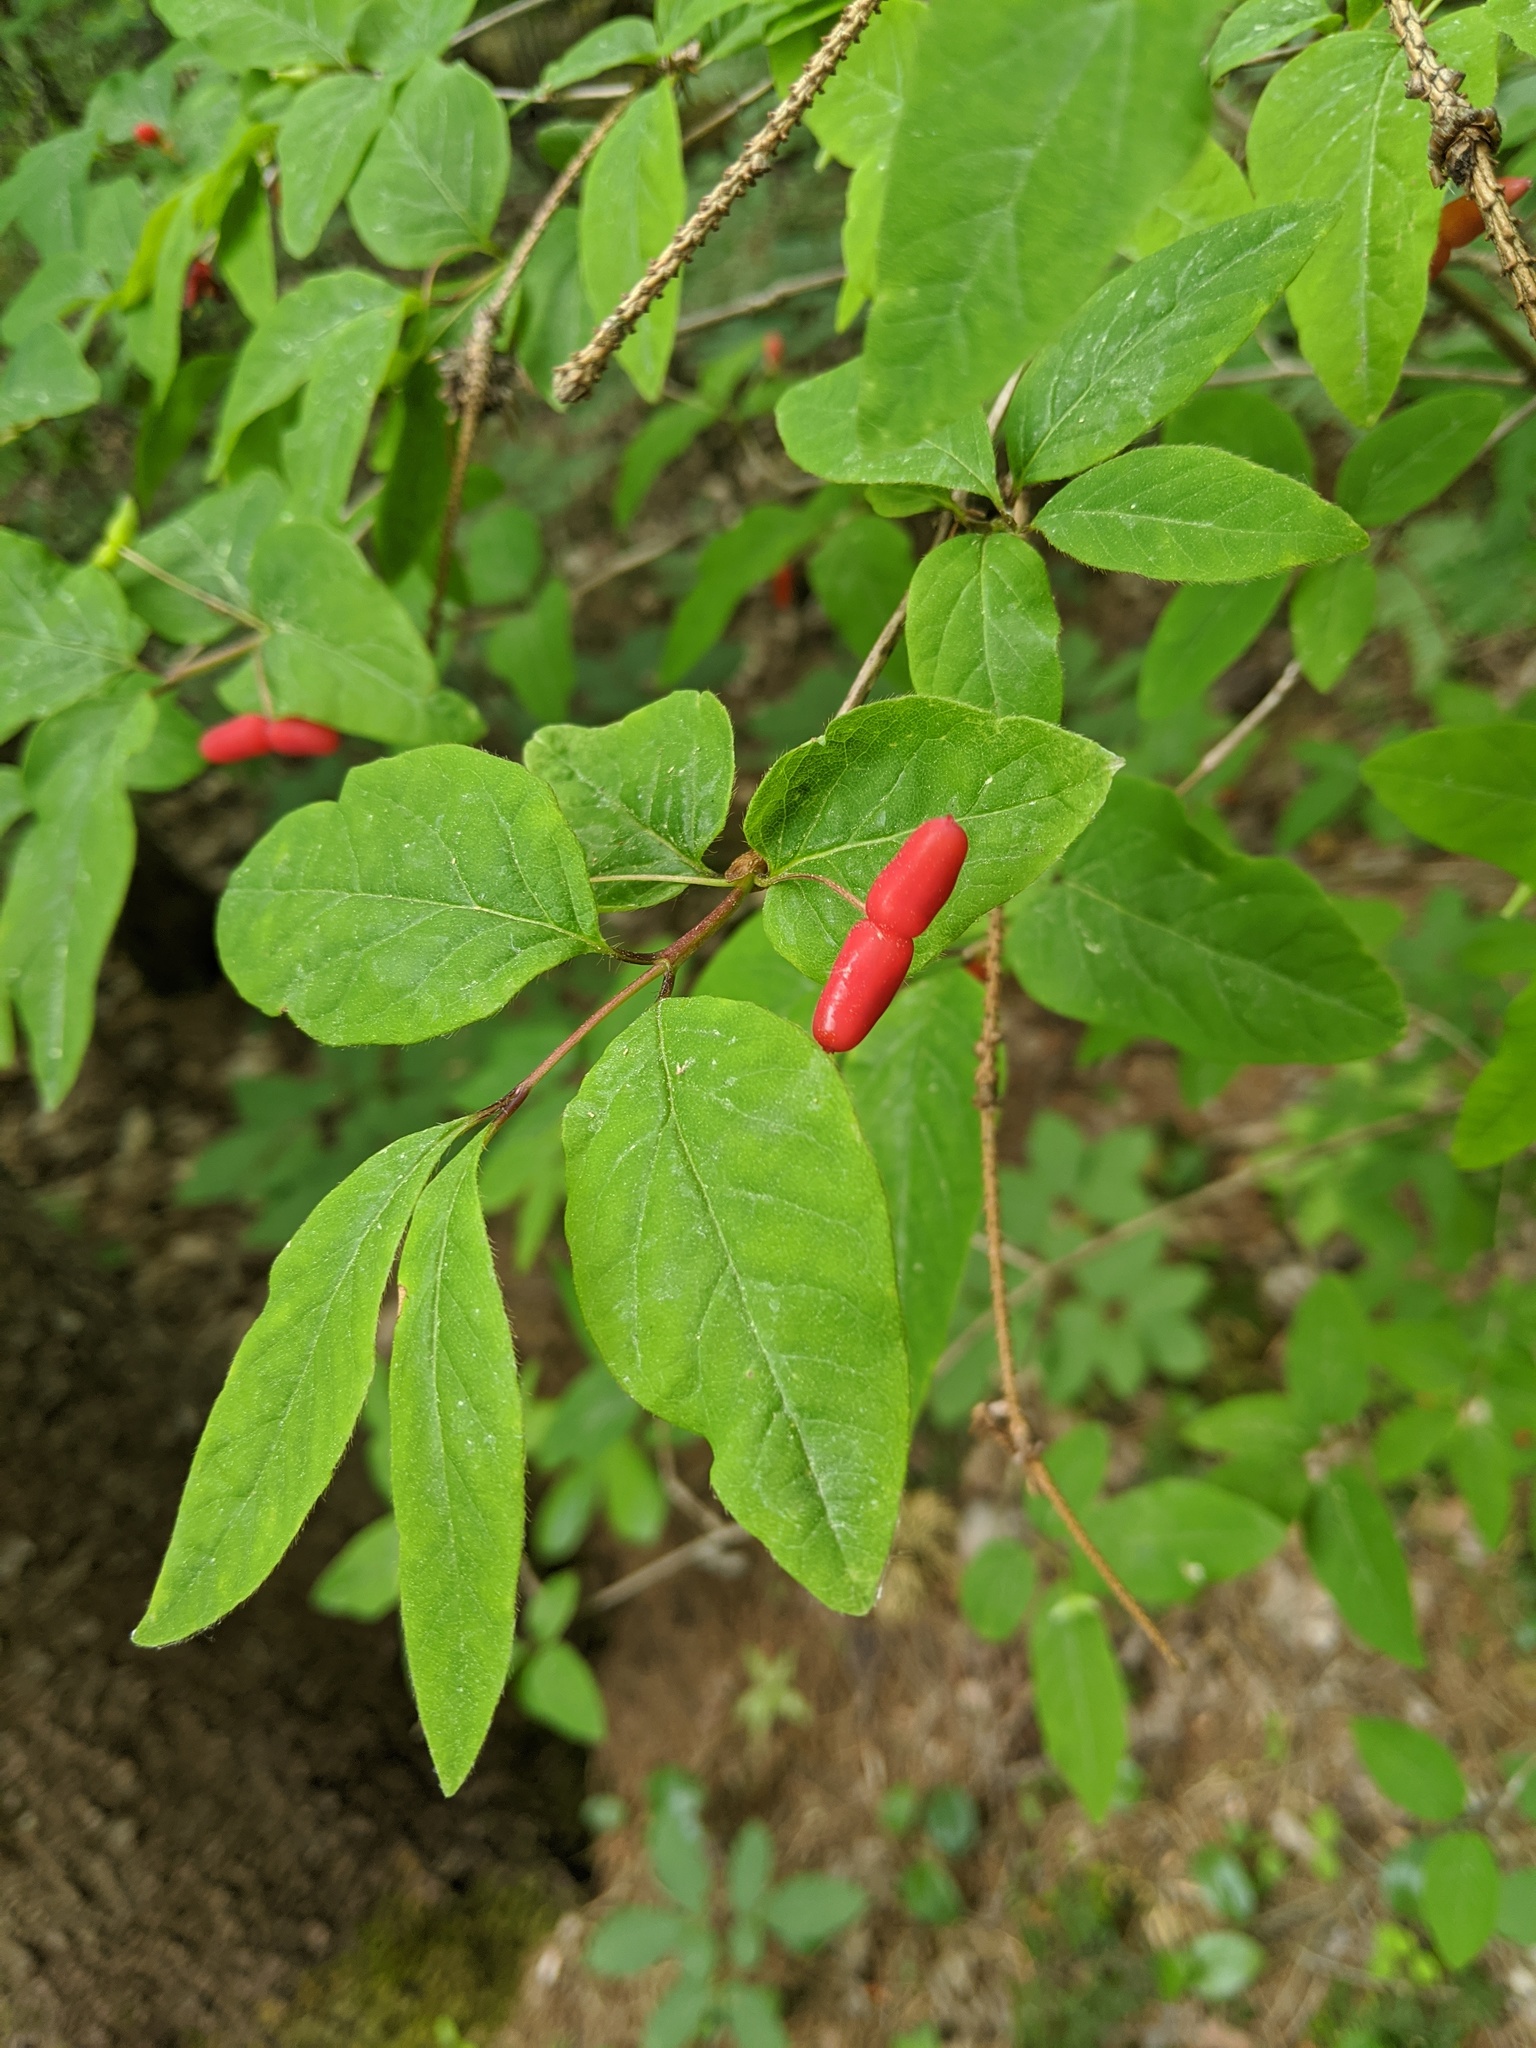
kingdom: Plantae
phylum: Tracheophyta
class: Magnoliopsida
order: Dipsacales
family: Caprifoliaceae
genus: Lonicera
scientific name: Lonicera canadensis
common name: American fly-honeysuckle
